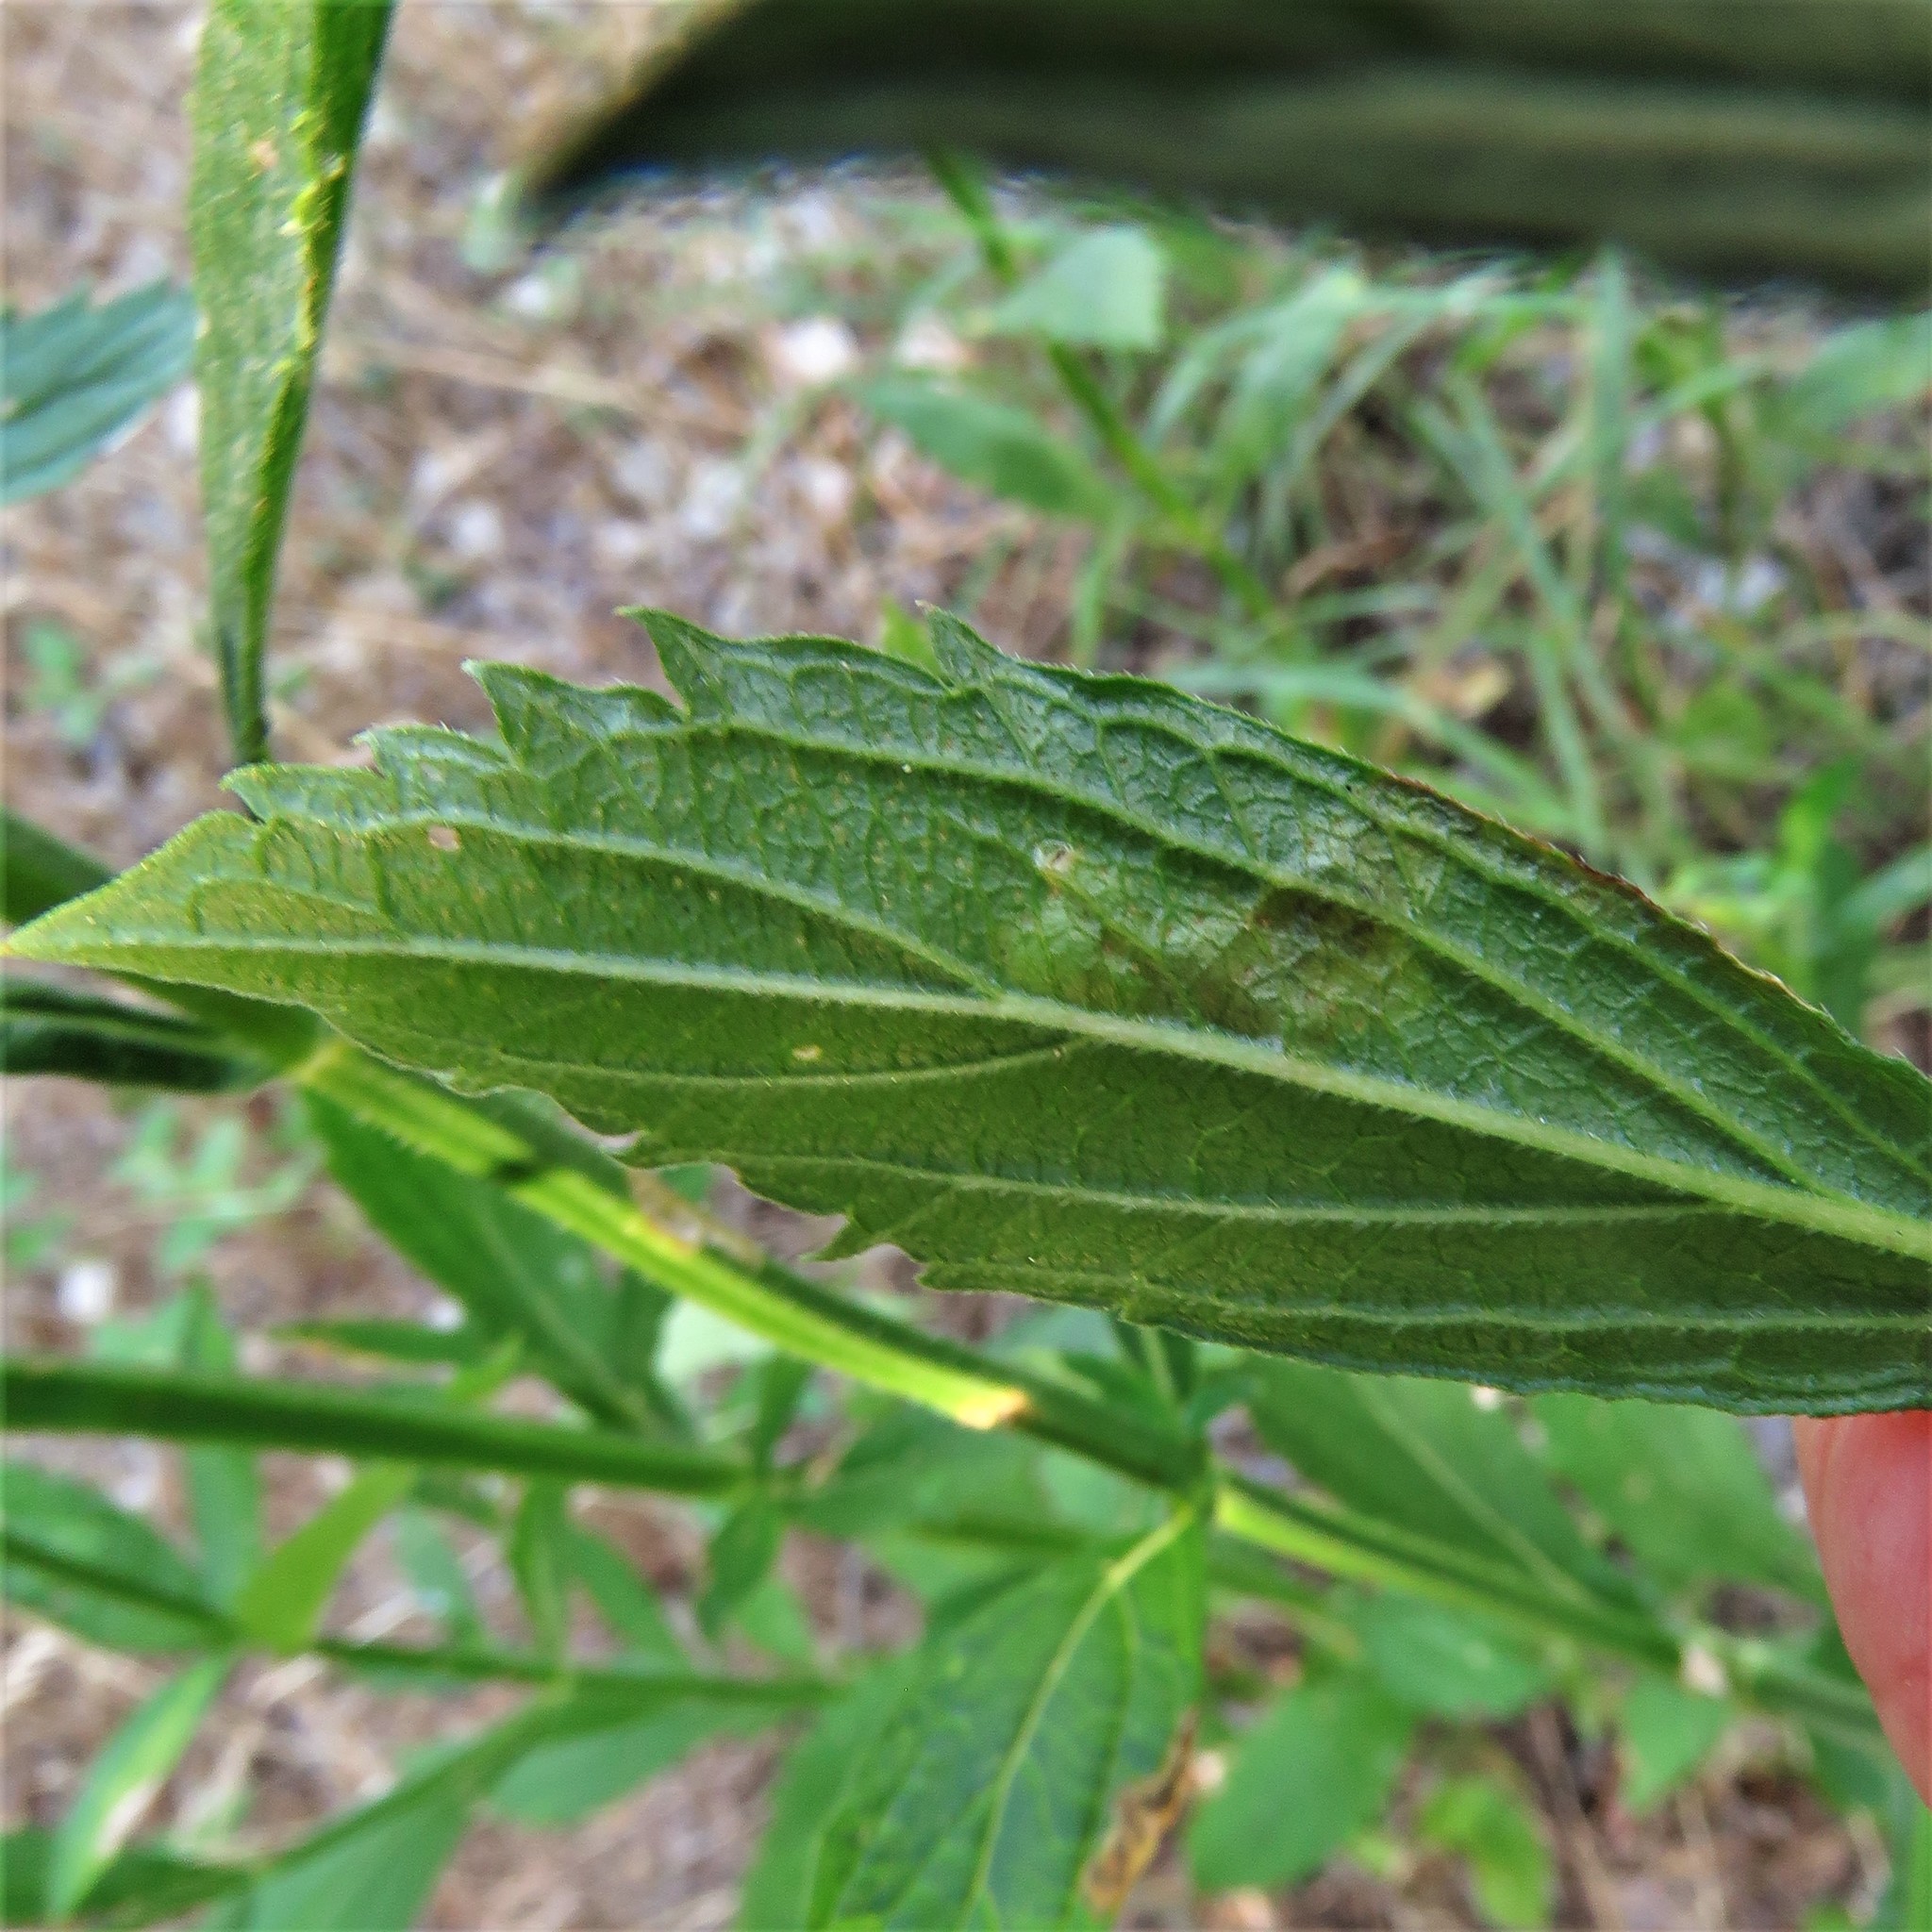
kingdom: Animalia
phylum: Arthropoda
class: Insecta
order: Diptera
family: Agromyzidae
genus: Calycomyza
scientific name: Calycomyza verbenae
